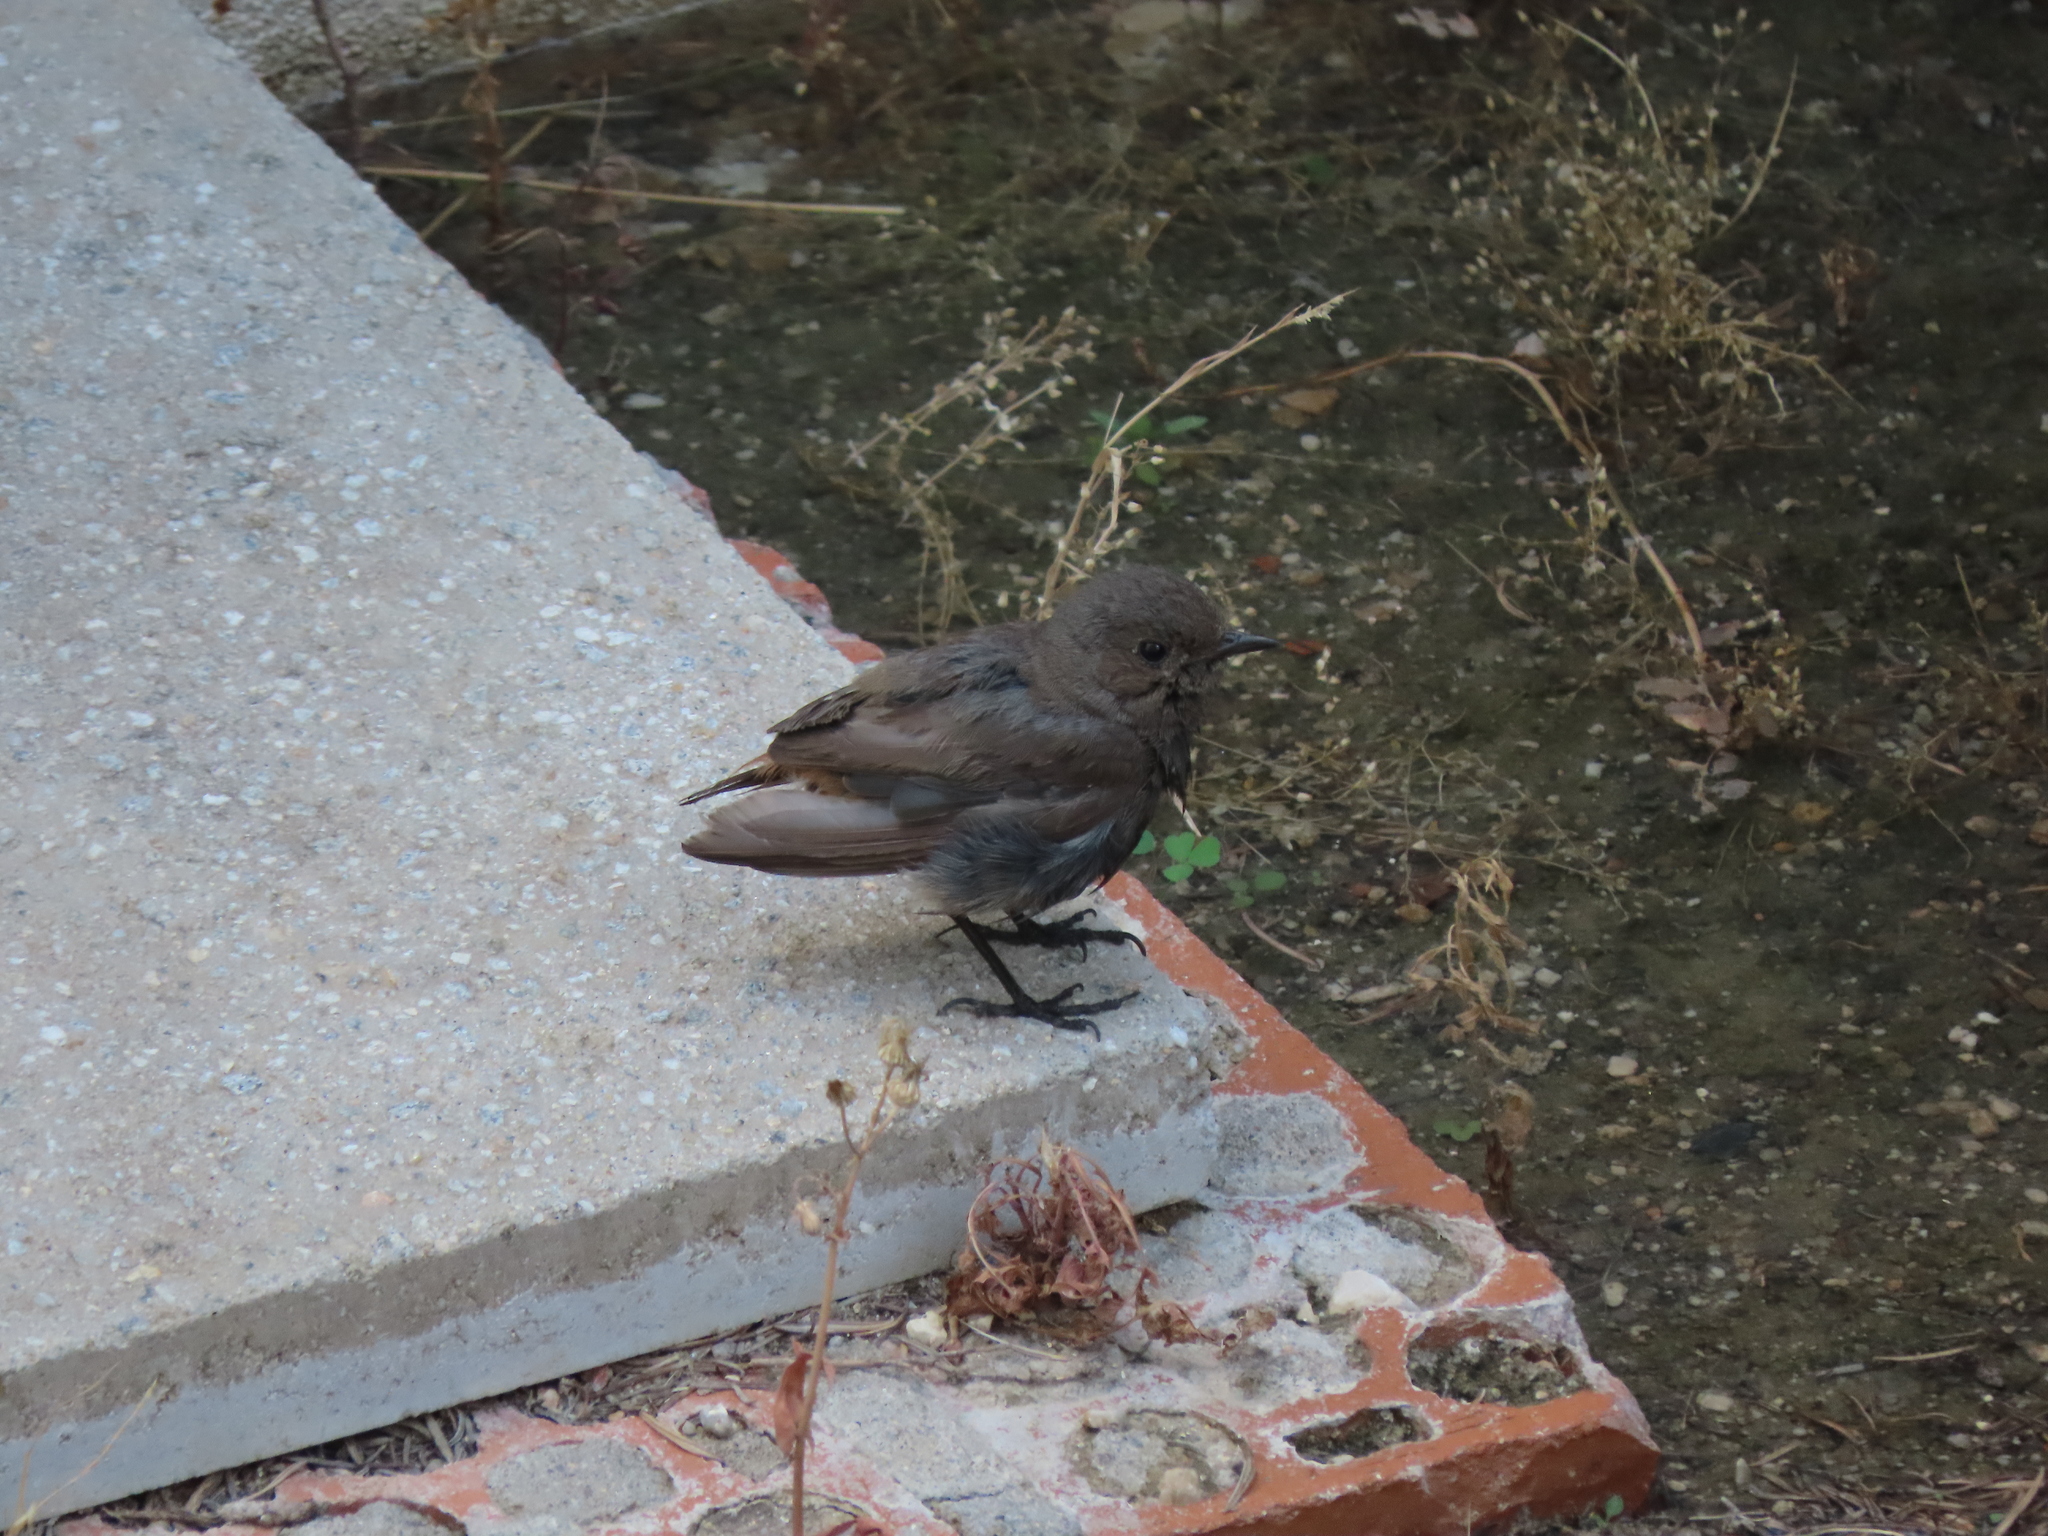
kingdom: Animalia
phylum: Chordata
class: Aves
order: Passeriformes
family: Muscicapidae
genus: Phoenicurus
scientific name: Phoenicurus ochruros
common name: Black redstart
